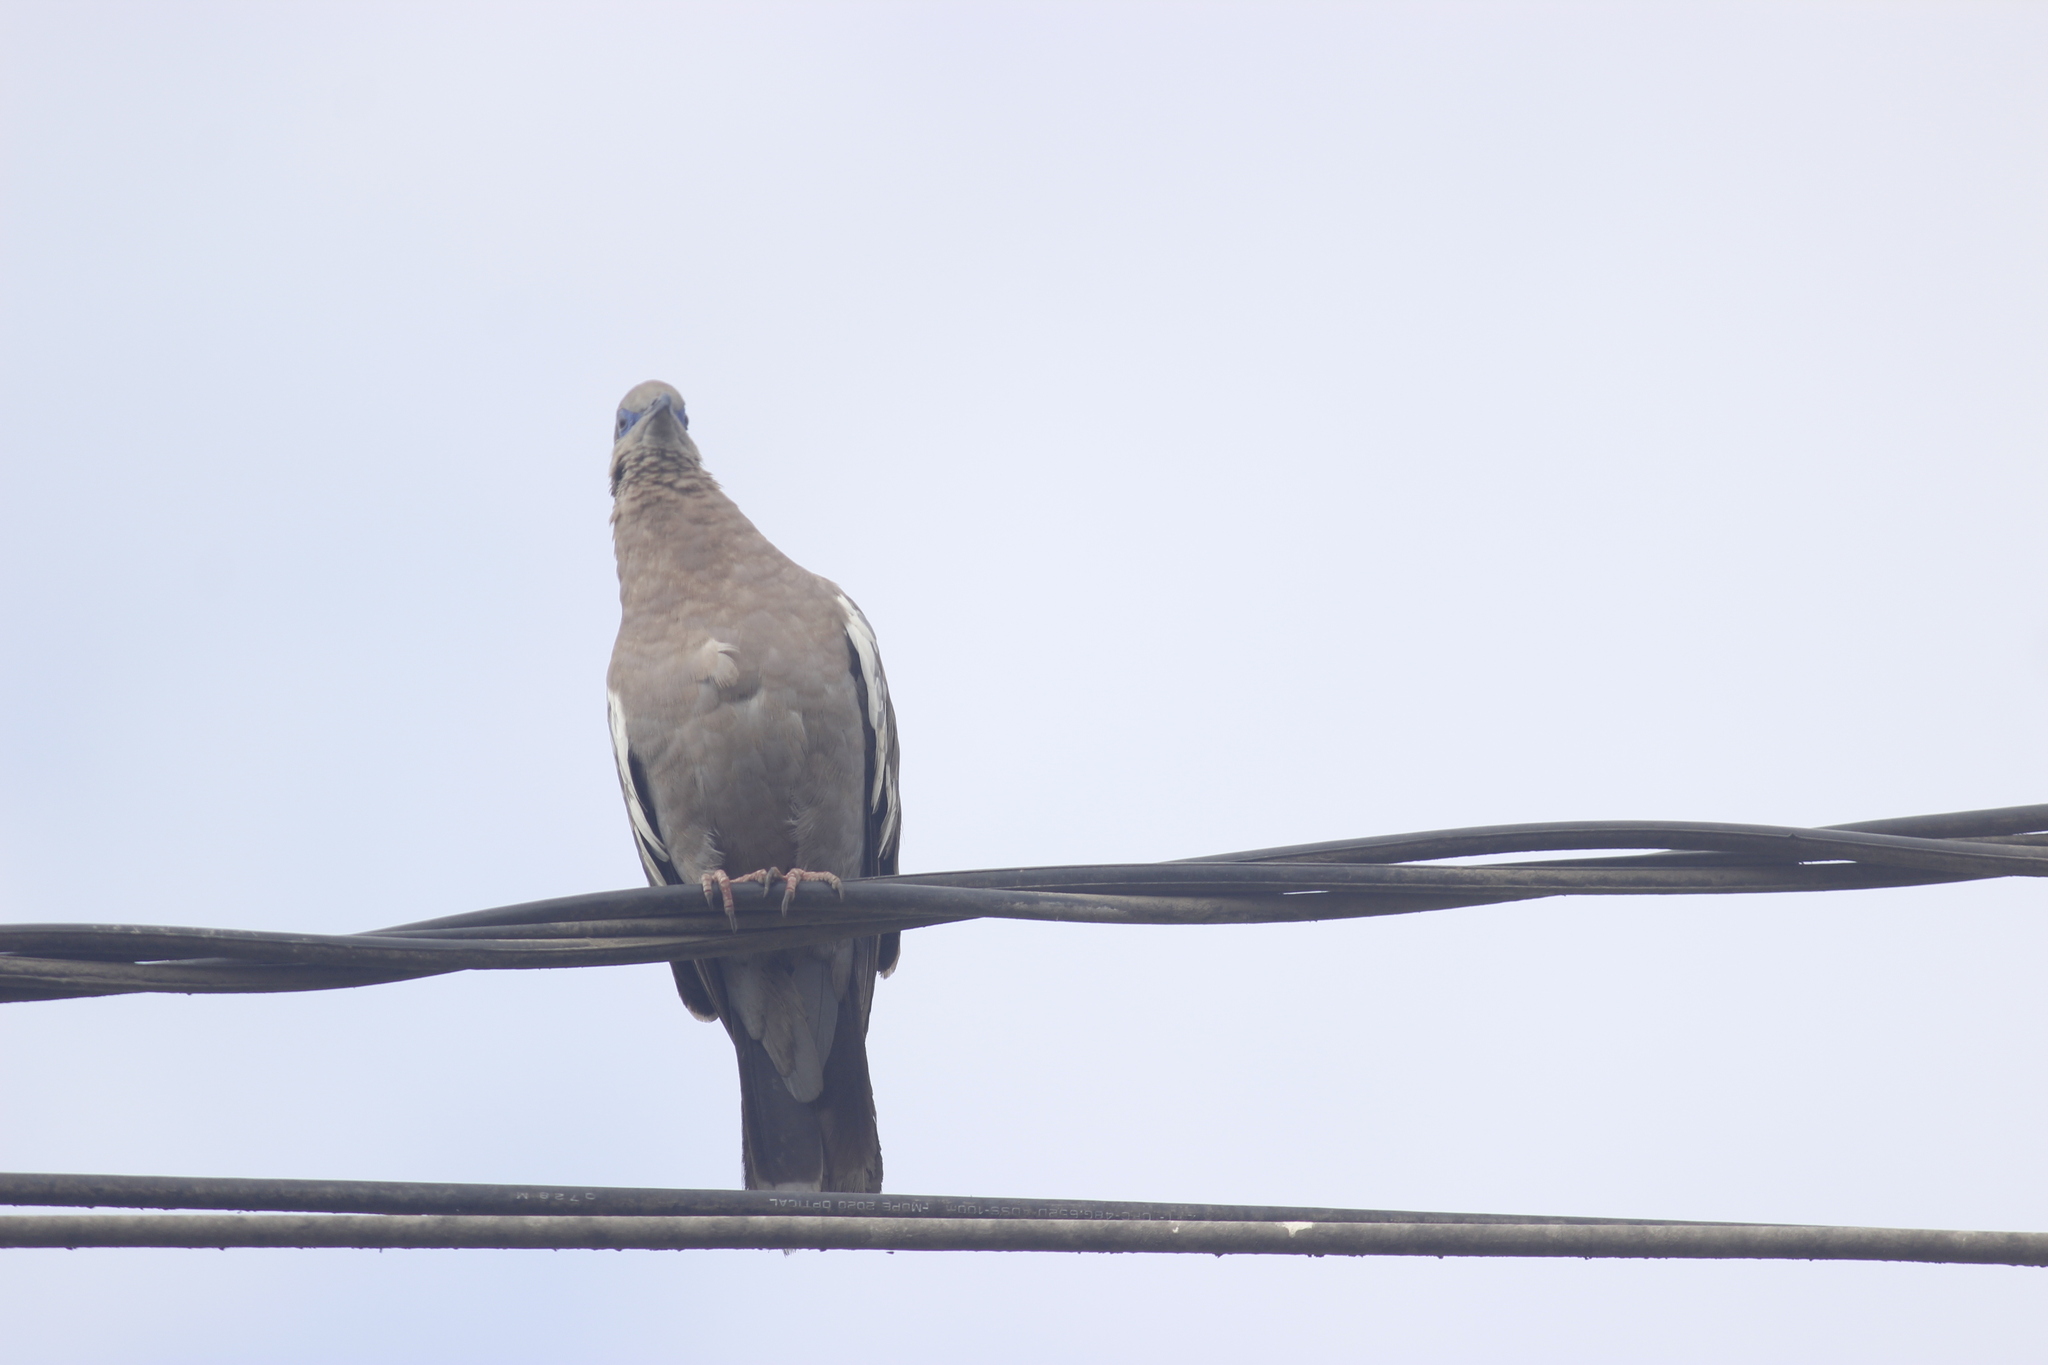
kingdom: Animalia
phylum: Chordata
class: Aves
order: Columbiformes
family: Columbidae
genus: Zenaida
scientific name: Zenaida meloda
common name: West peruvian dove
